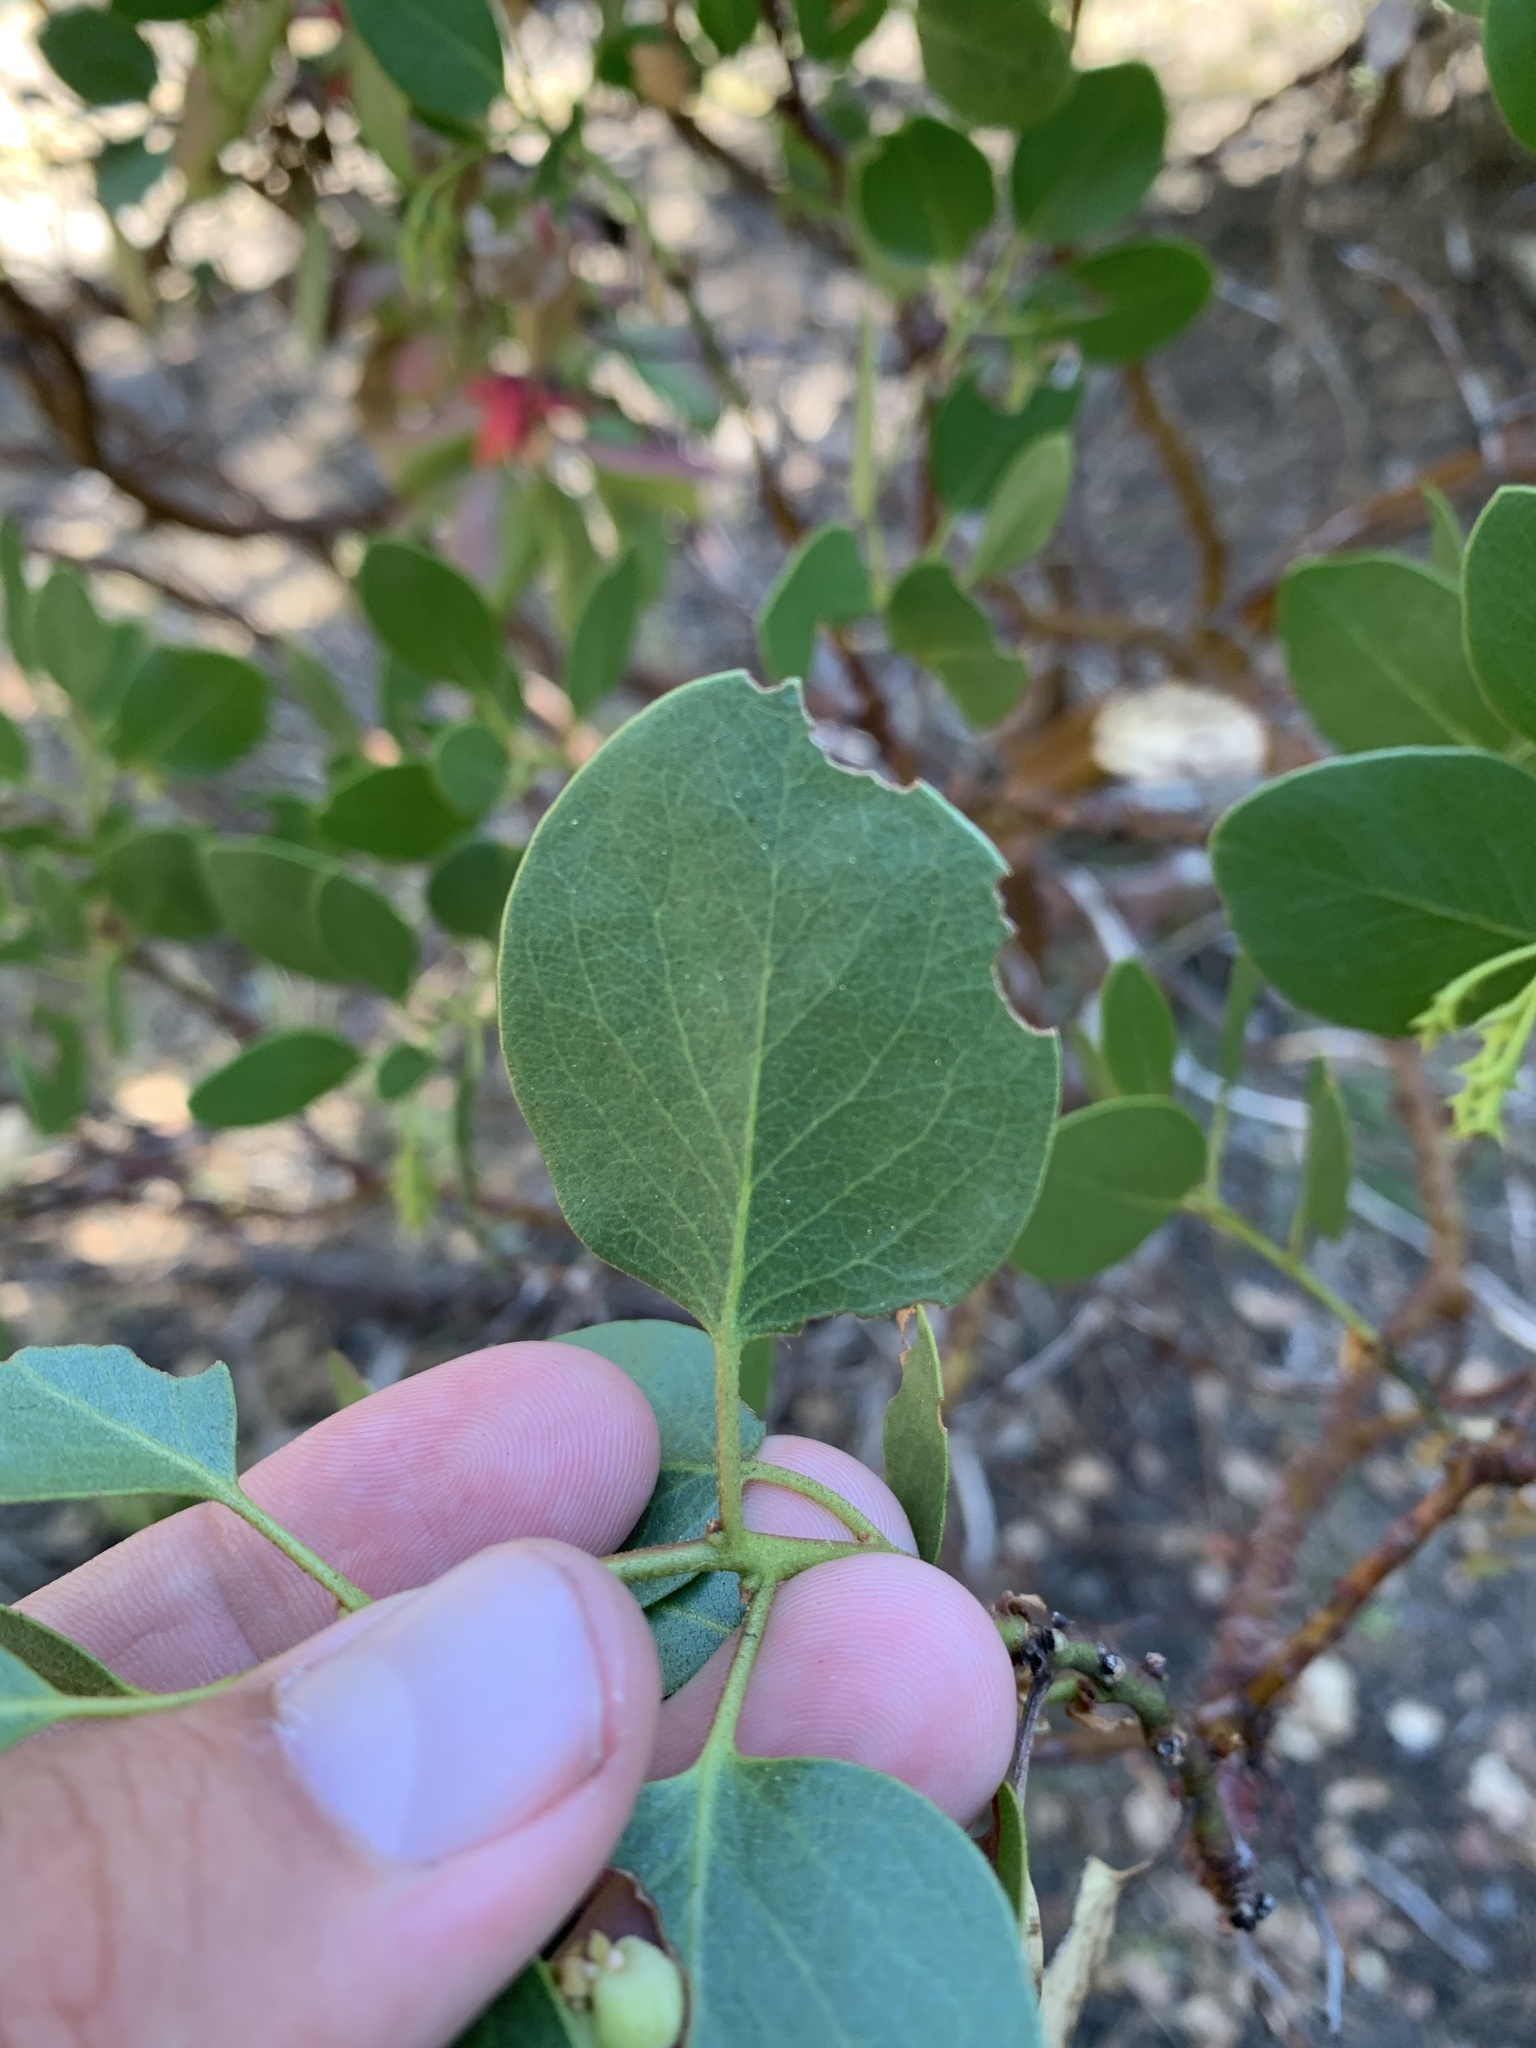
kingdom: Plantae
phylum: Tracheophyta
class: Magnoliopsida
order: Ericales
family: Ericaceae
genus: Arctostaphylos
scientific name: Arctostaphylos patula
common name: Green-leaf manzanita
